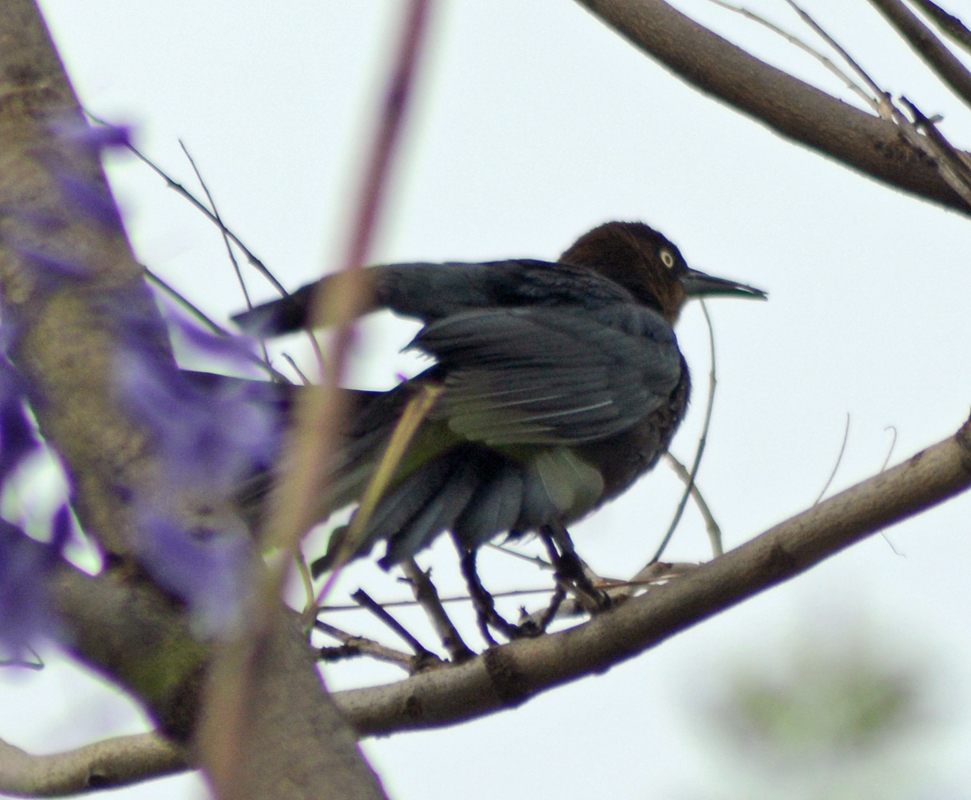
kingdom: Animalia
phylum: Chordata
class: Aves
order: Passeriformes
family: Icteridae
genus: Quiscalus
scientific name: Quiscalus mexicanus
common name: Great-tailed grackle
